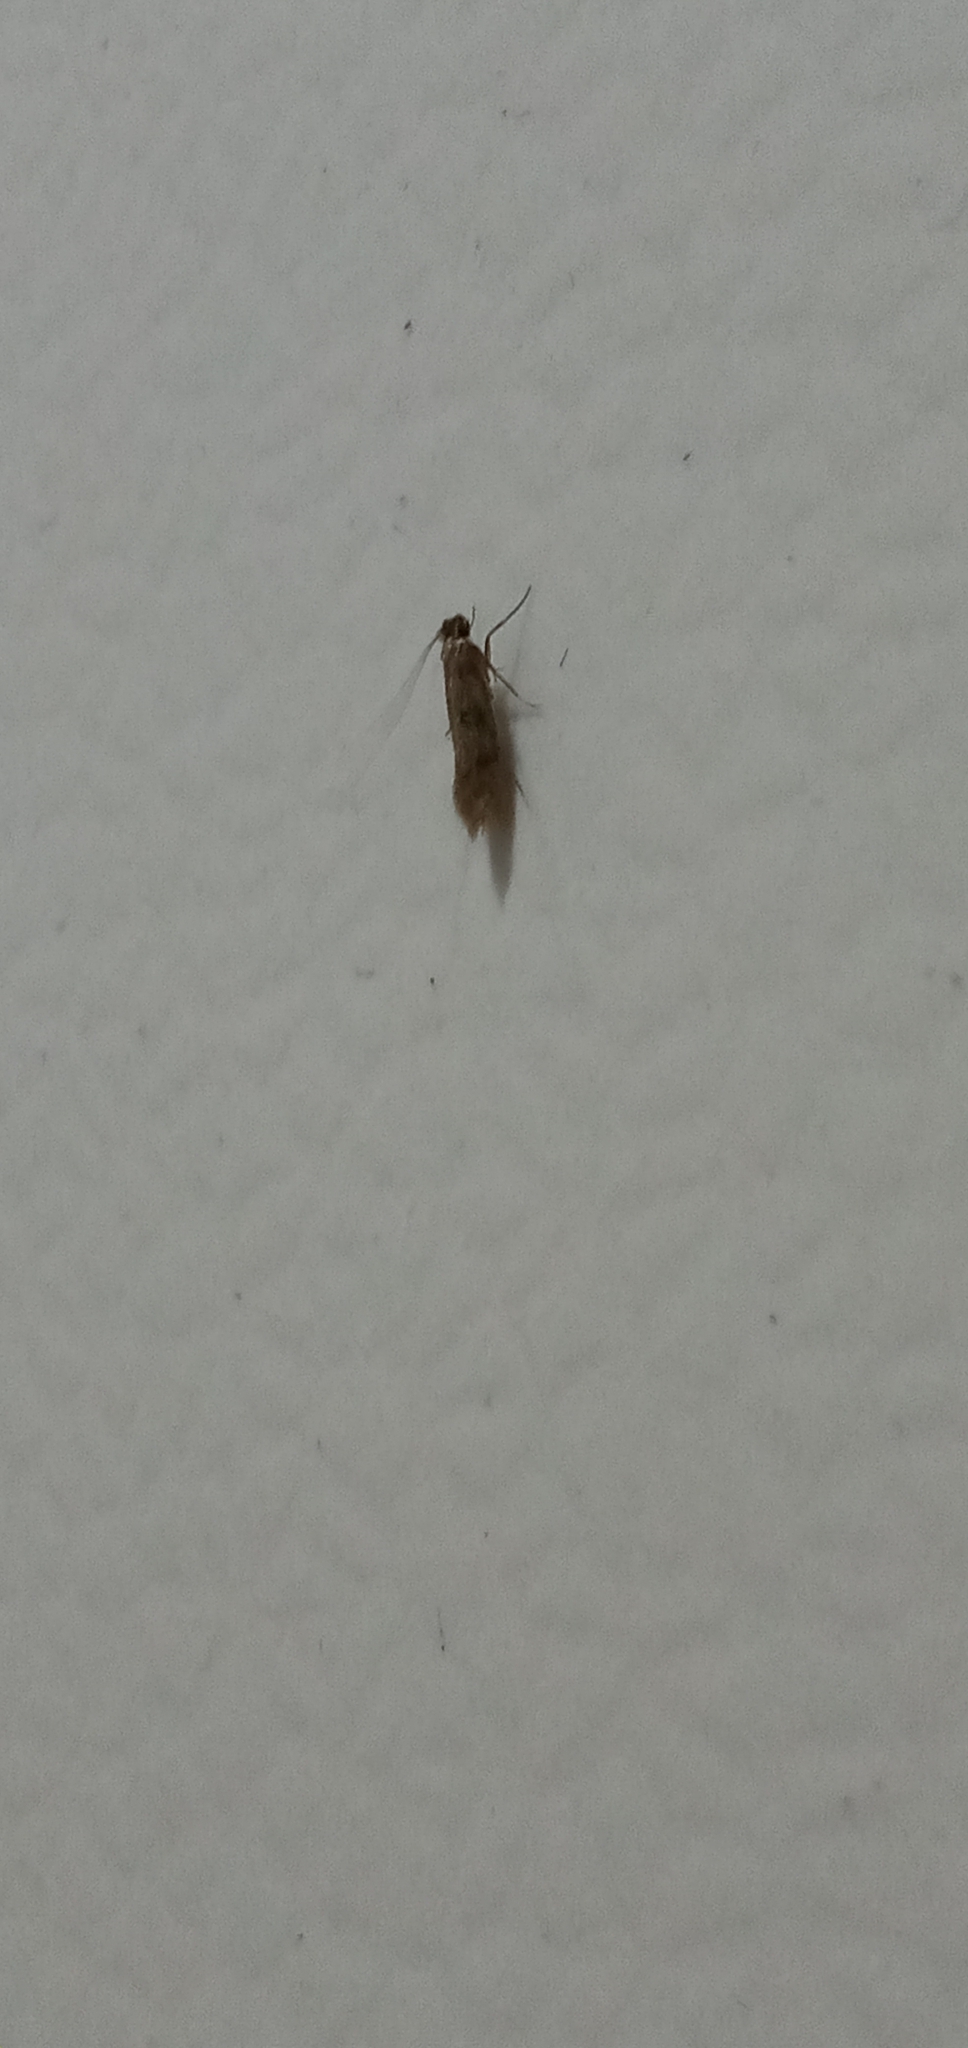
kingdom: Animalia
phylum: Arthropoda
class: Insecta
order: Lepidoptera
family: Tineidae
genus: Tineola
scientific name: Tineola bisselliella
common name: Webbing clothes moth
